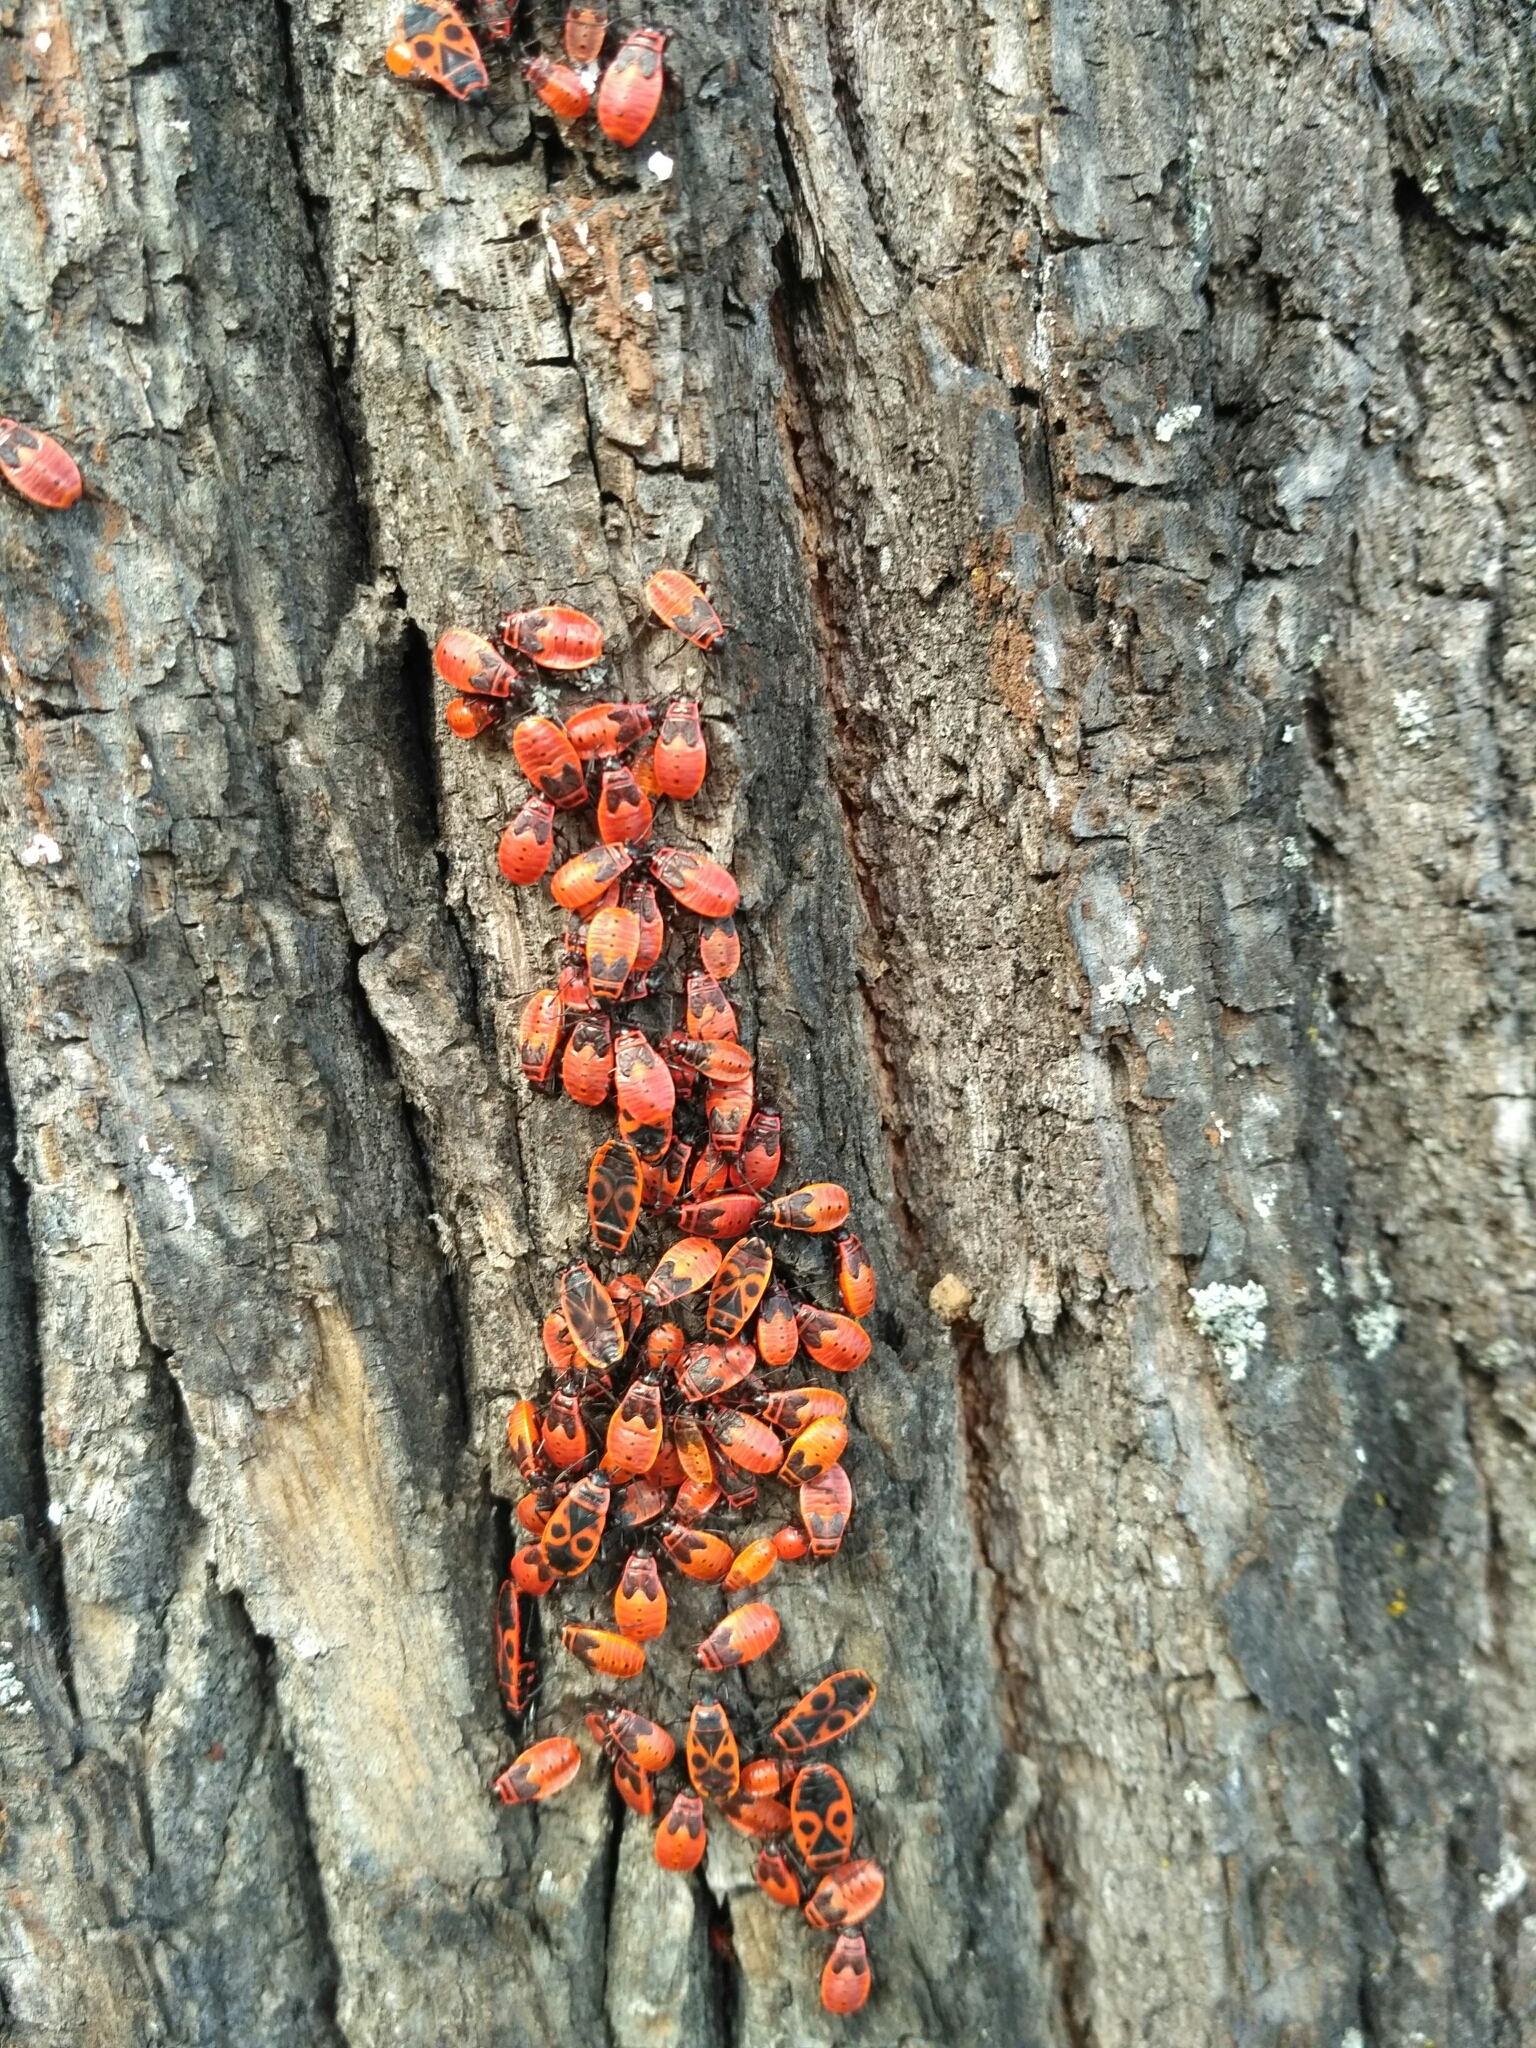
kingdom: Animalia
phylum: Arthropoda
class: Insecta
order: Hemiptera
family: Pyrrhocoridae
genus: Pyrrhocoris
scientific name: Pyrrhocoris apterus
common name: Firebug
